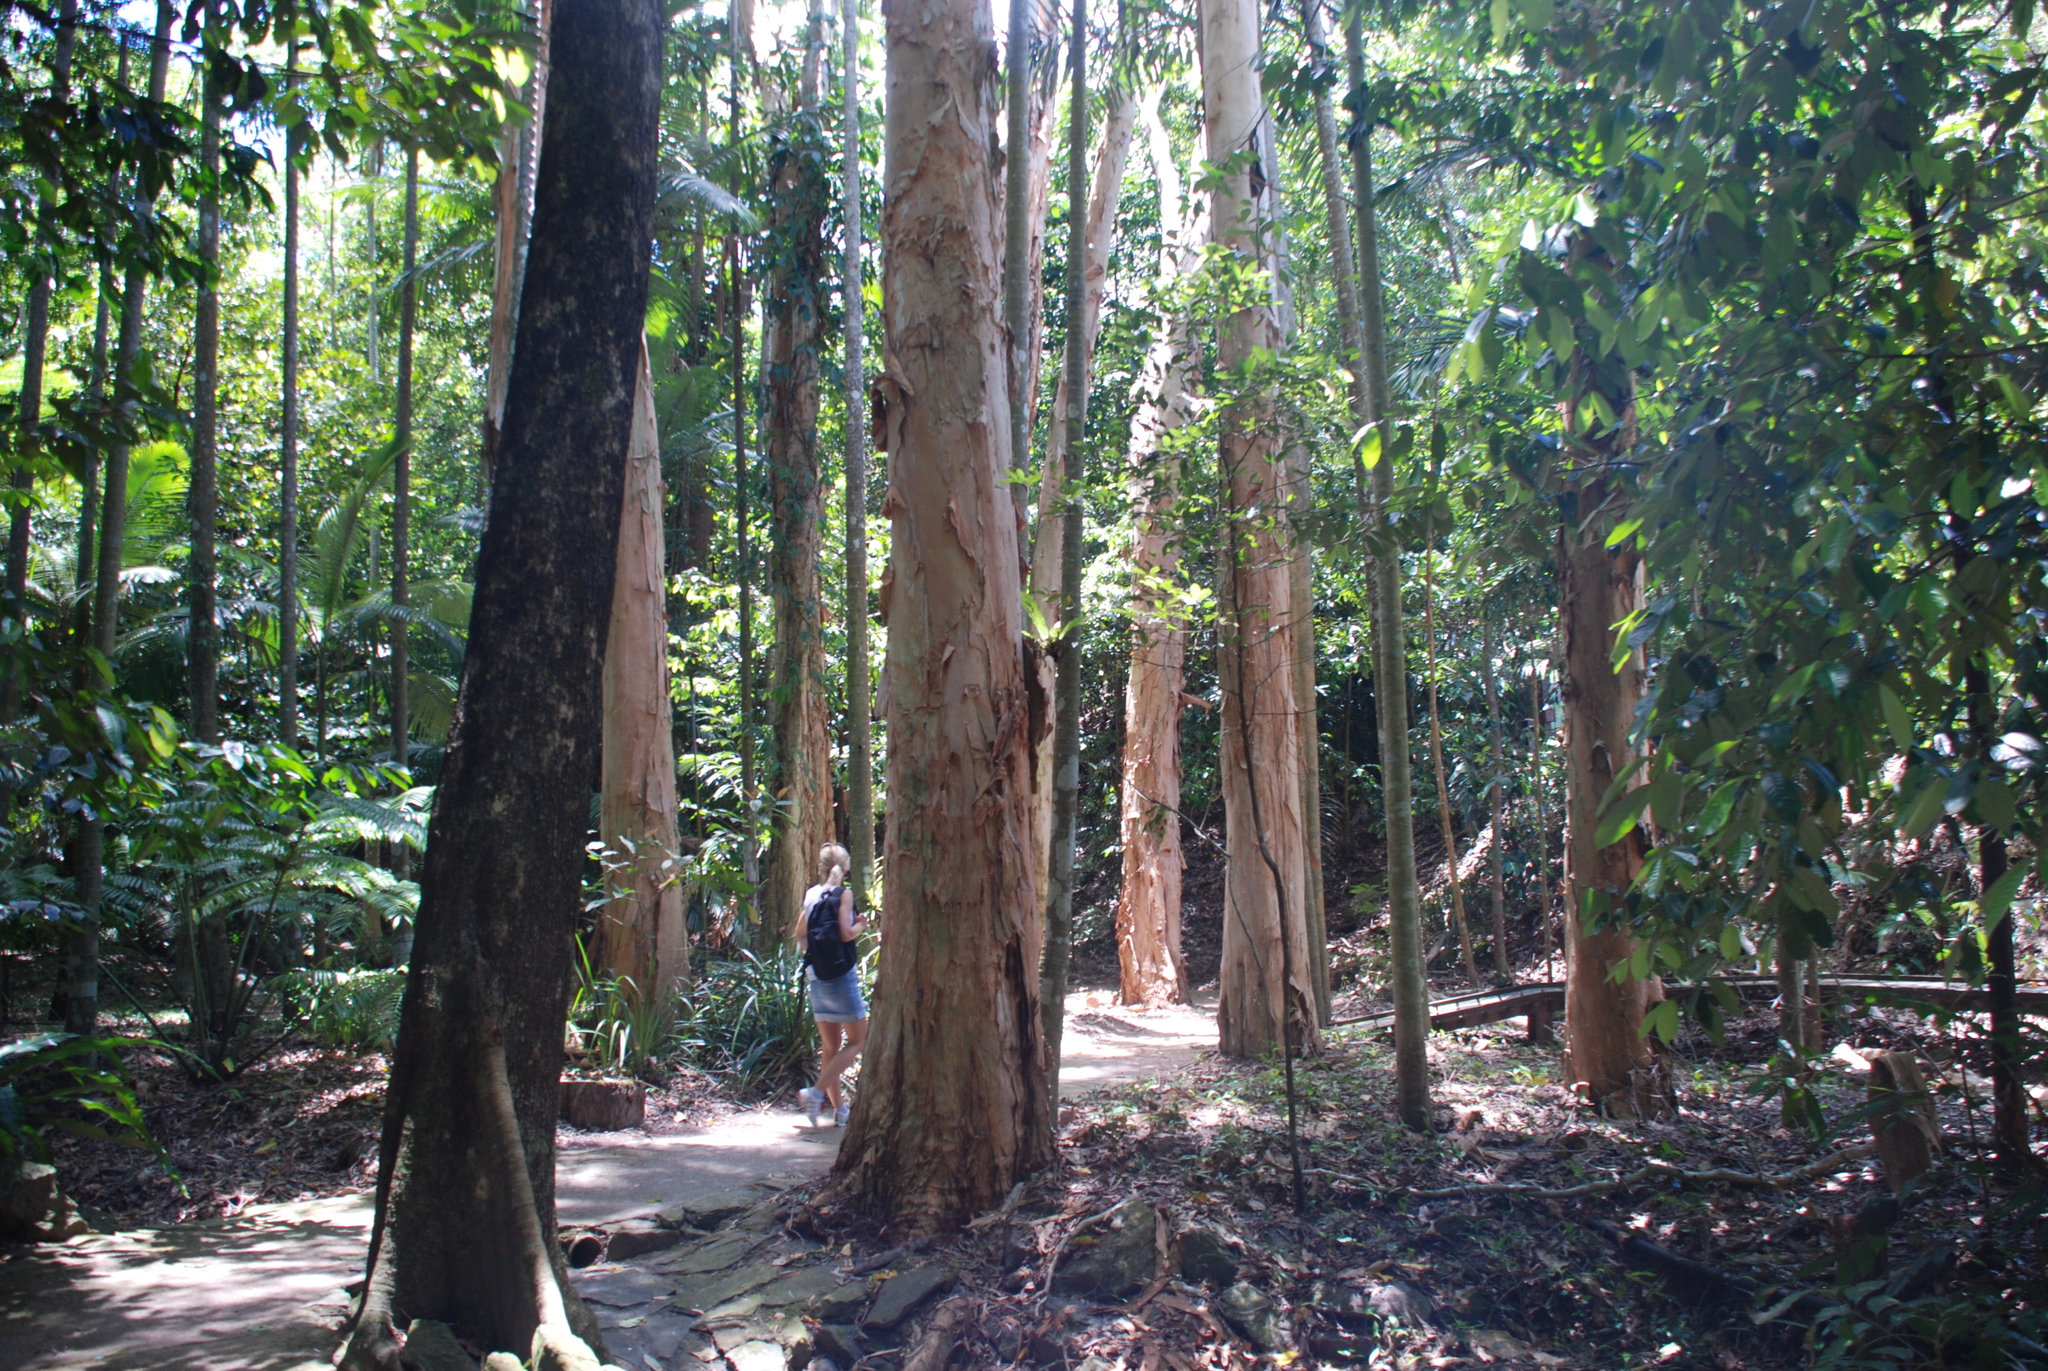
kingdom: Plantae
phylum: Tracheophyta
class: Magnoliopsida
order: Myrtales
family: Myrtaceae
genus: Melaleuca
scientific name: Melaleuca leucadendra
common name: Weeping paperbark
